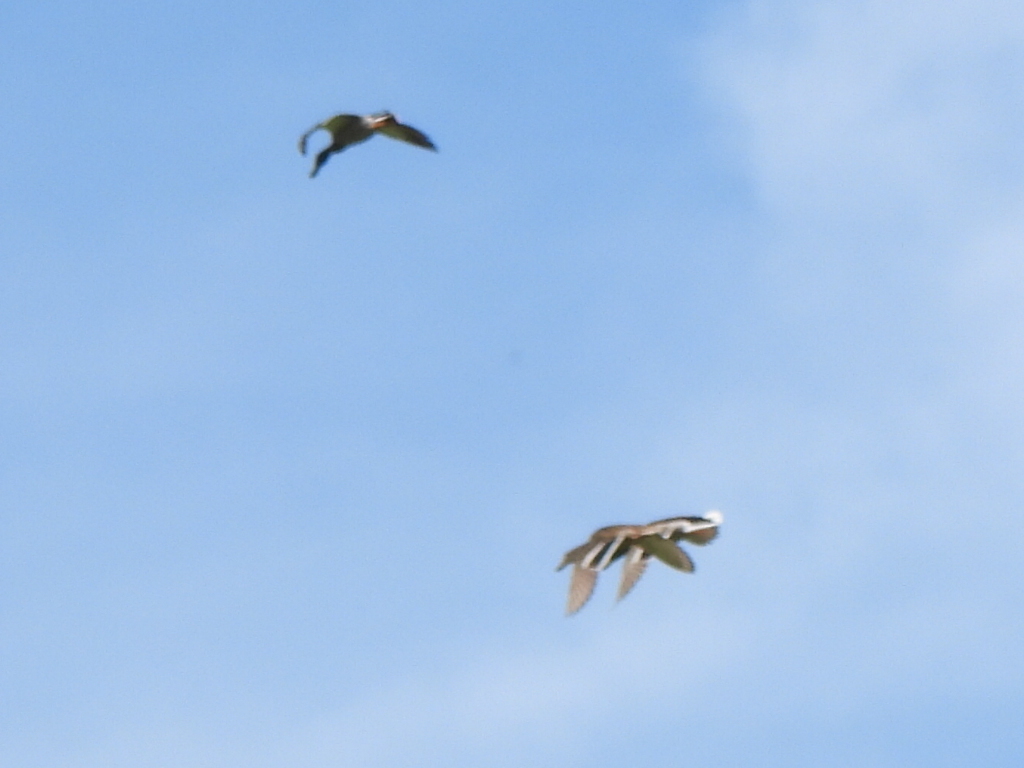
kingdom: Animalia
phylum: Chordata
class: Aves
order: Anseriformes
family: Anatidae
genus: Anas
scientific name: Anas platyrhynchos
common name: Mallard
